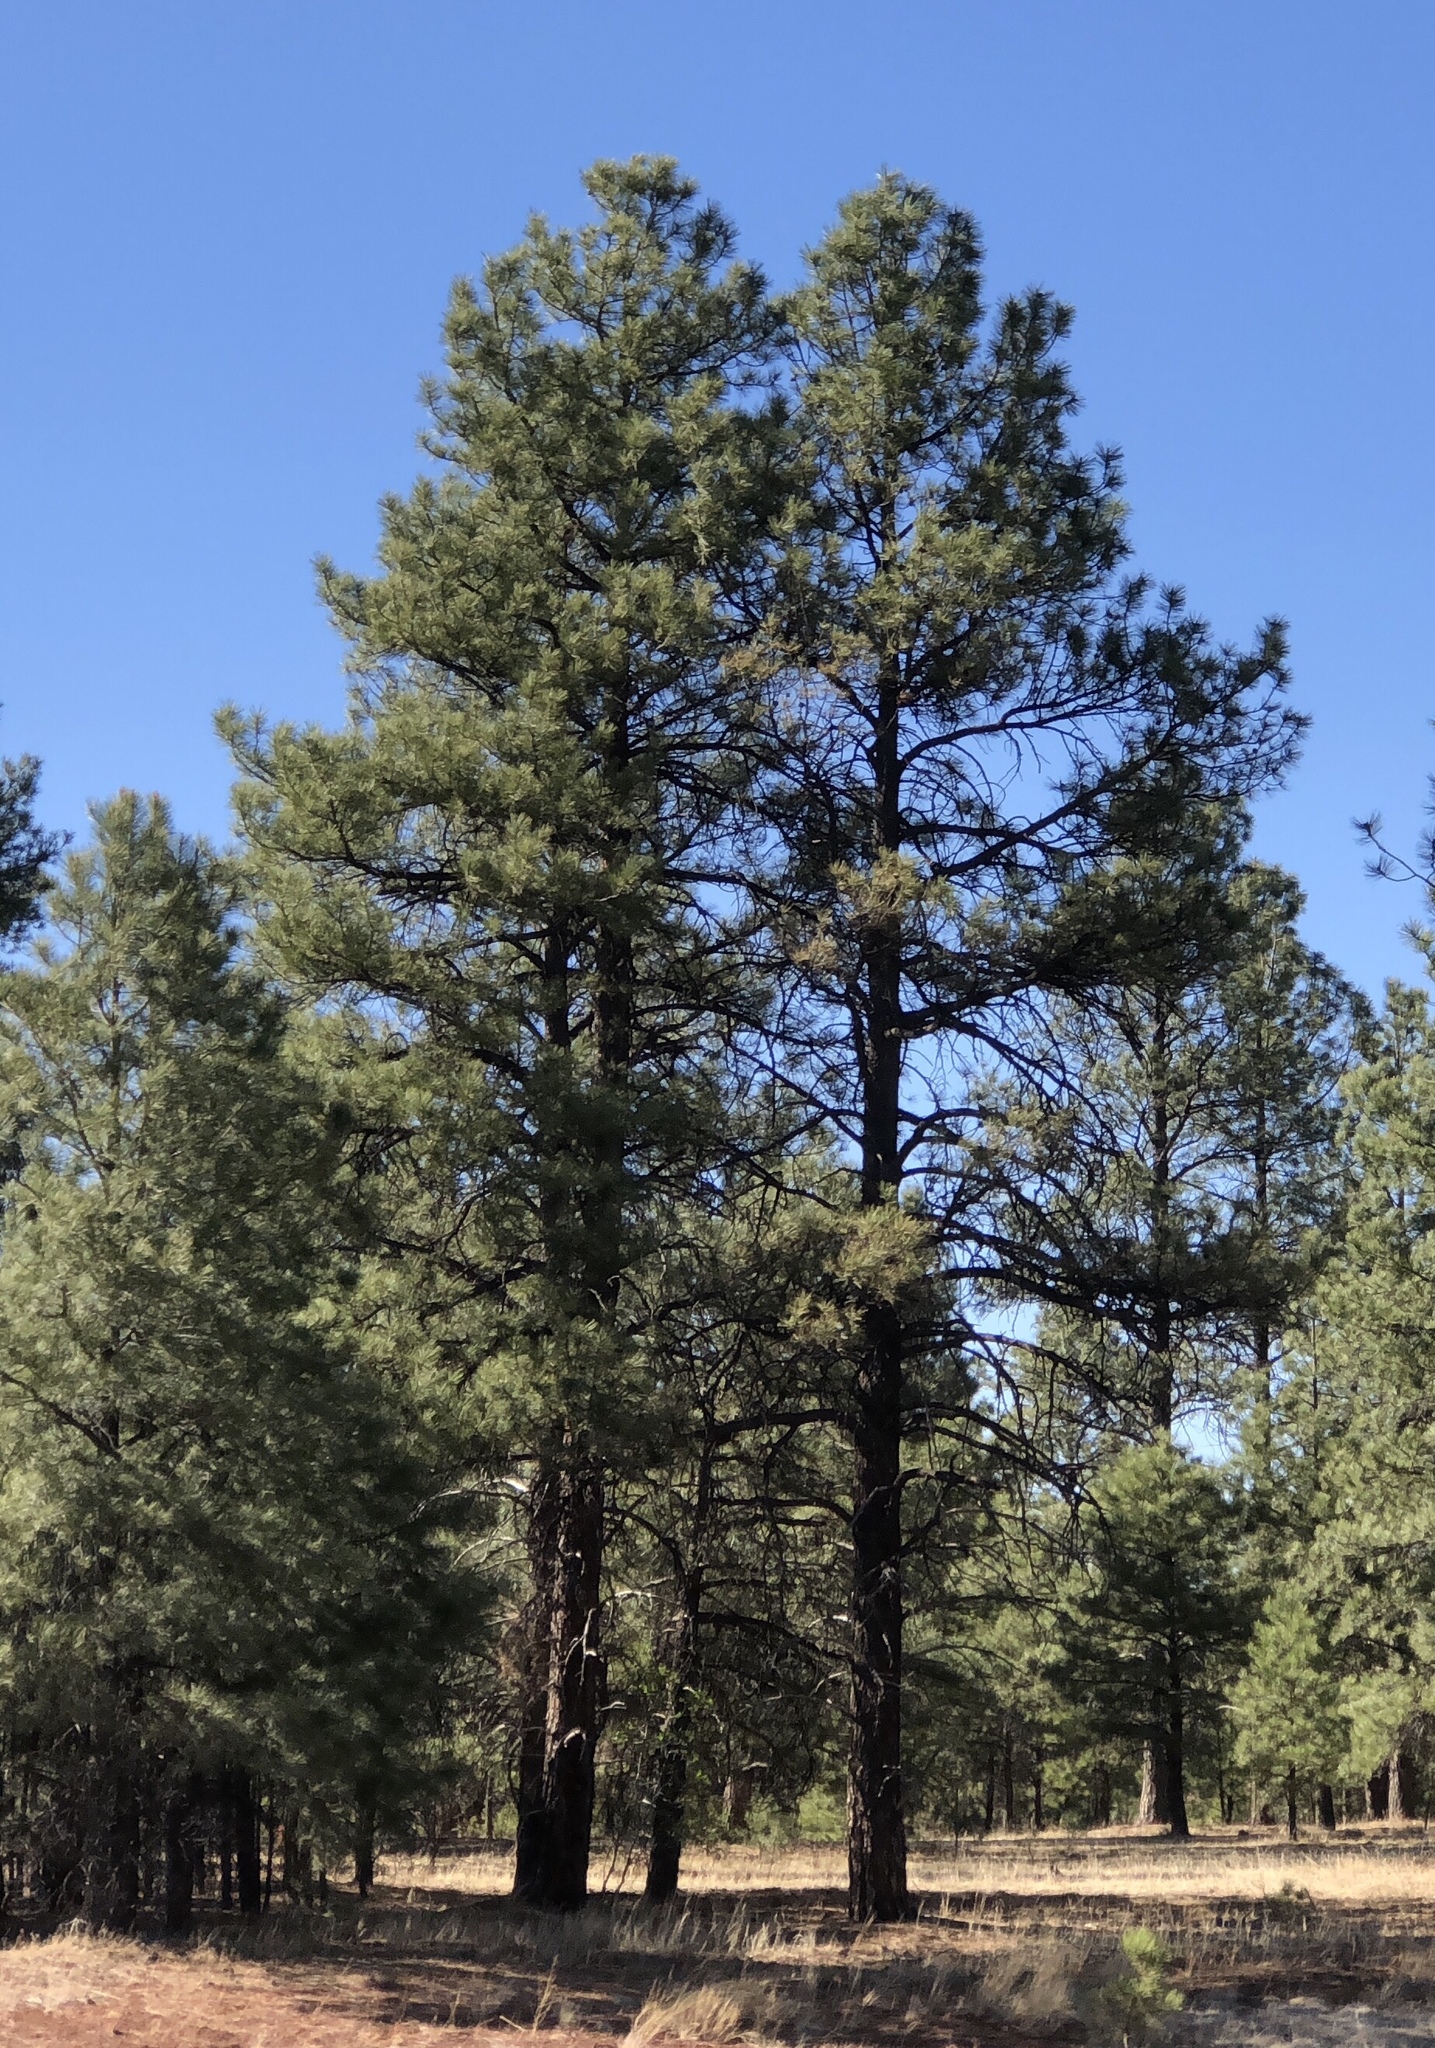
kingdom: Plantae
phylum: Tracheophyta
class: Pinopsida
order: Pinales
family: Pinaceae
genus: Pinus
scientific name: Pinus ponderosa
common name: Western yellow-pine
